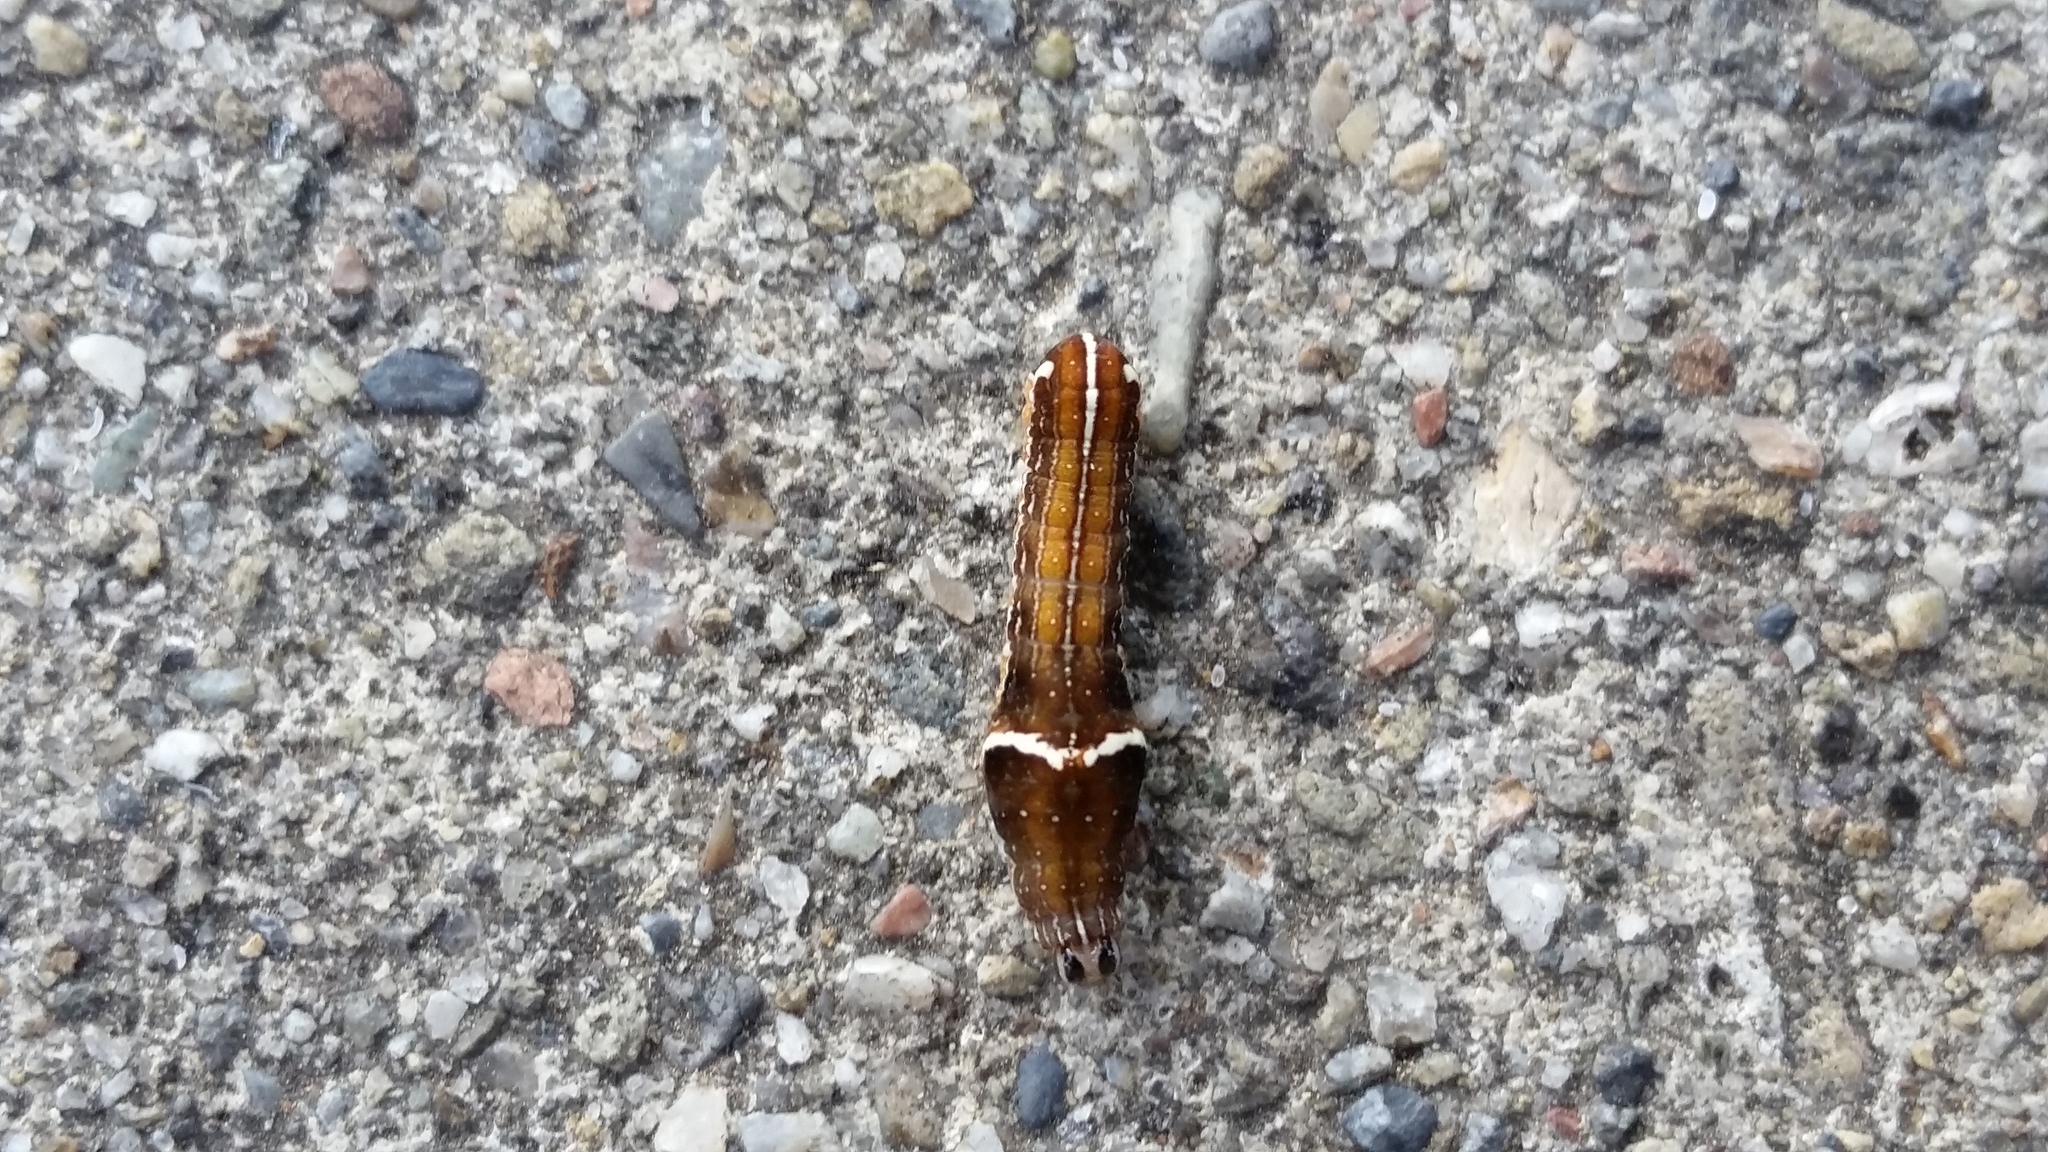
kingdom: Animalia
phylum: Arthropoda
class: Insecta
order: Lepidoptera
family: Noctuidae
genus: Galgula
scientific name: Galgula partita
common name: Wedgeling
